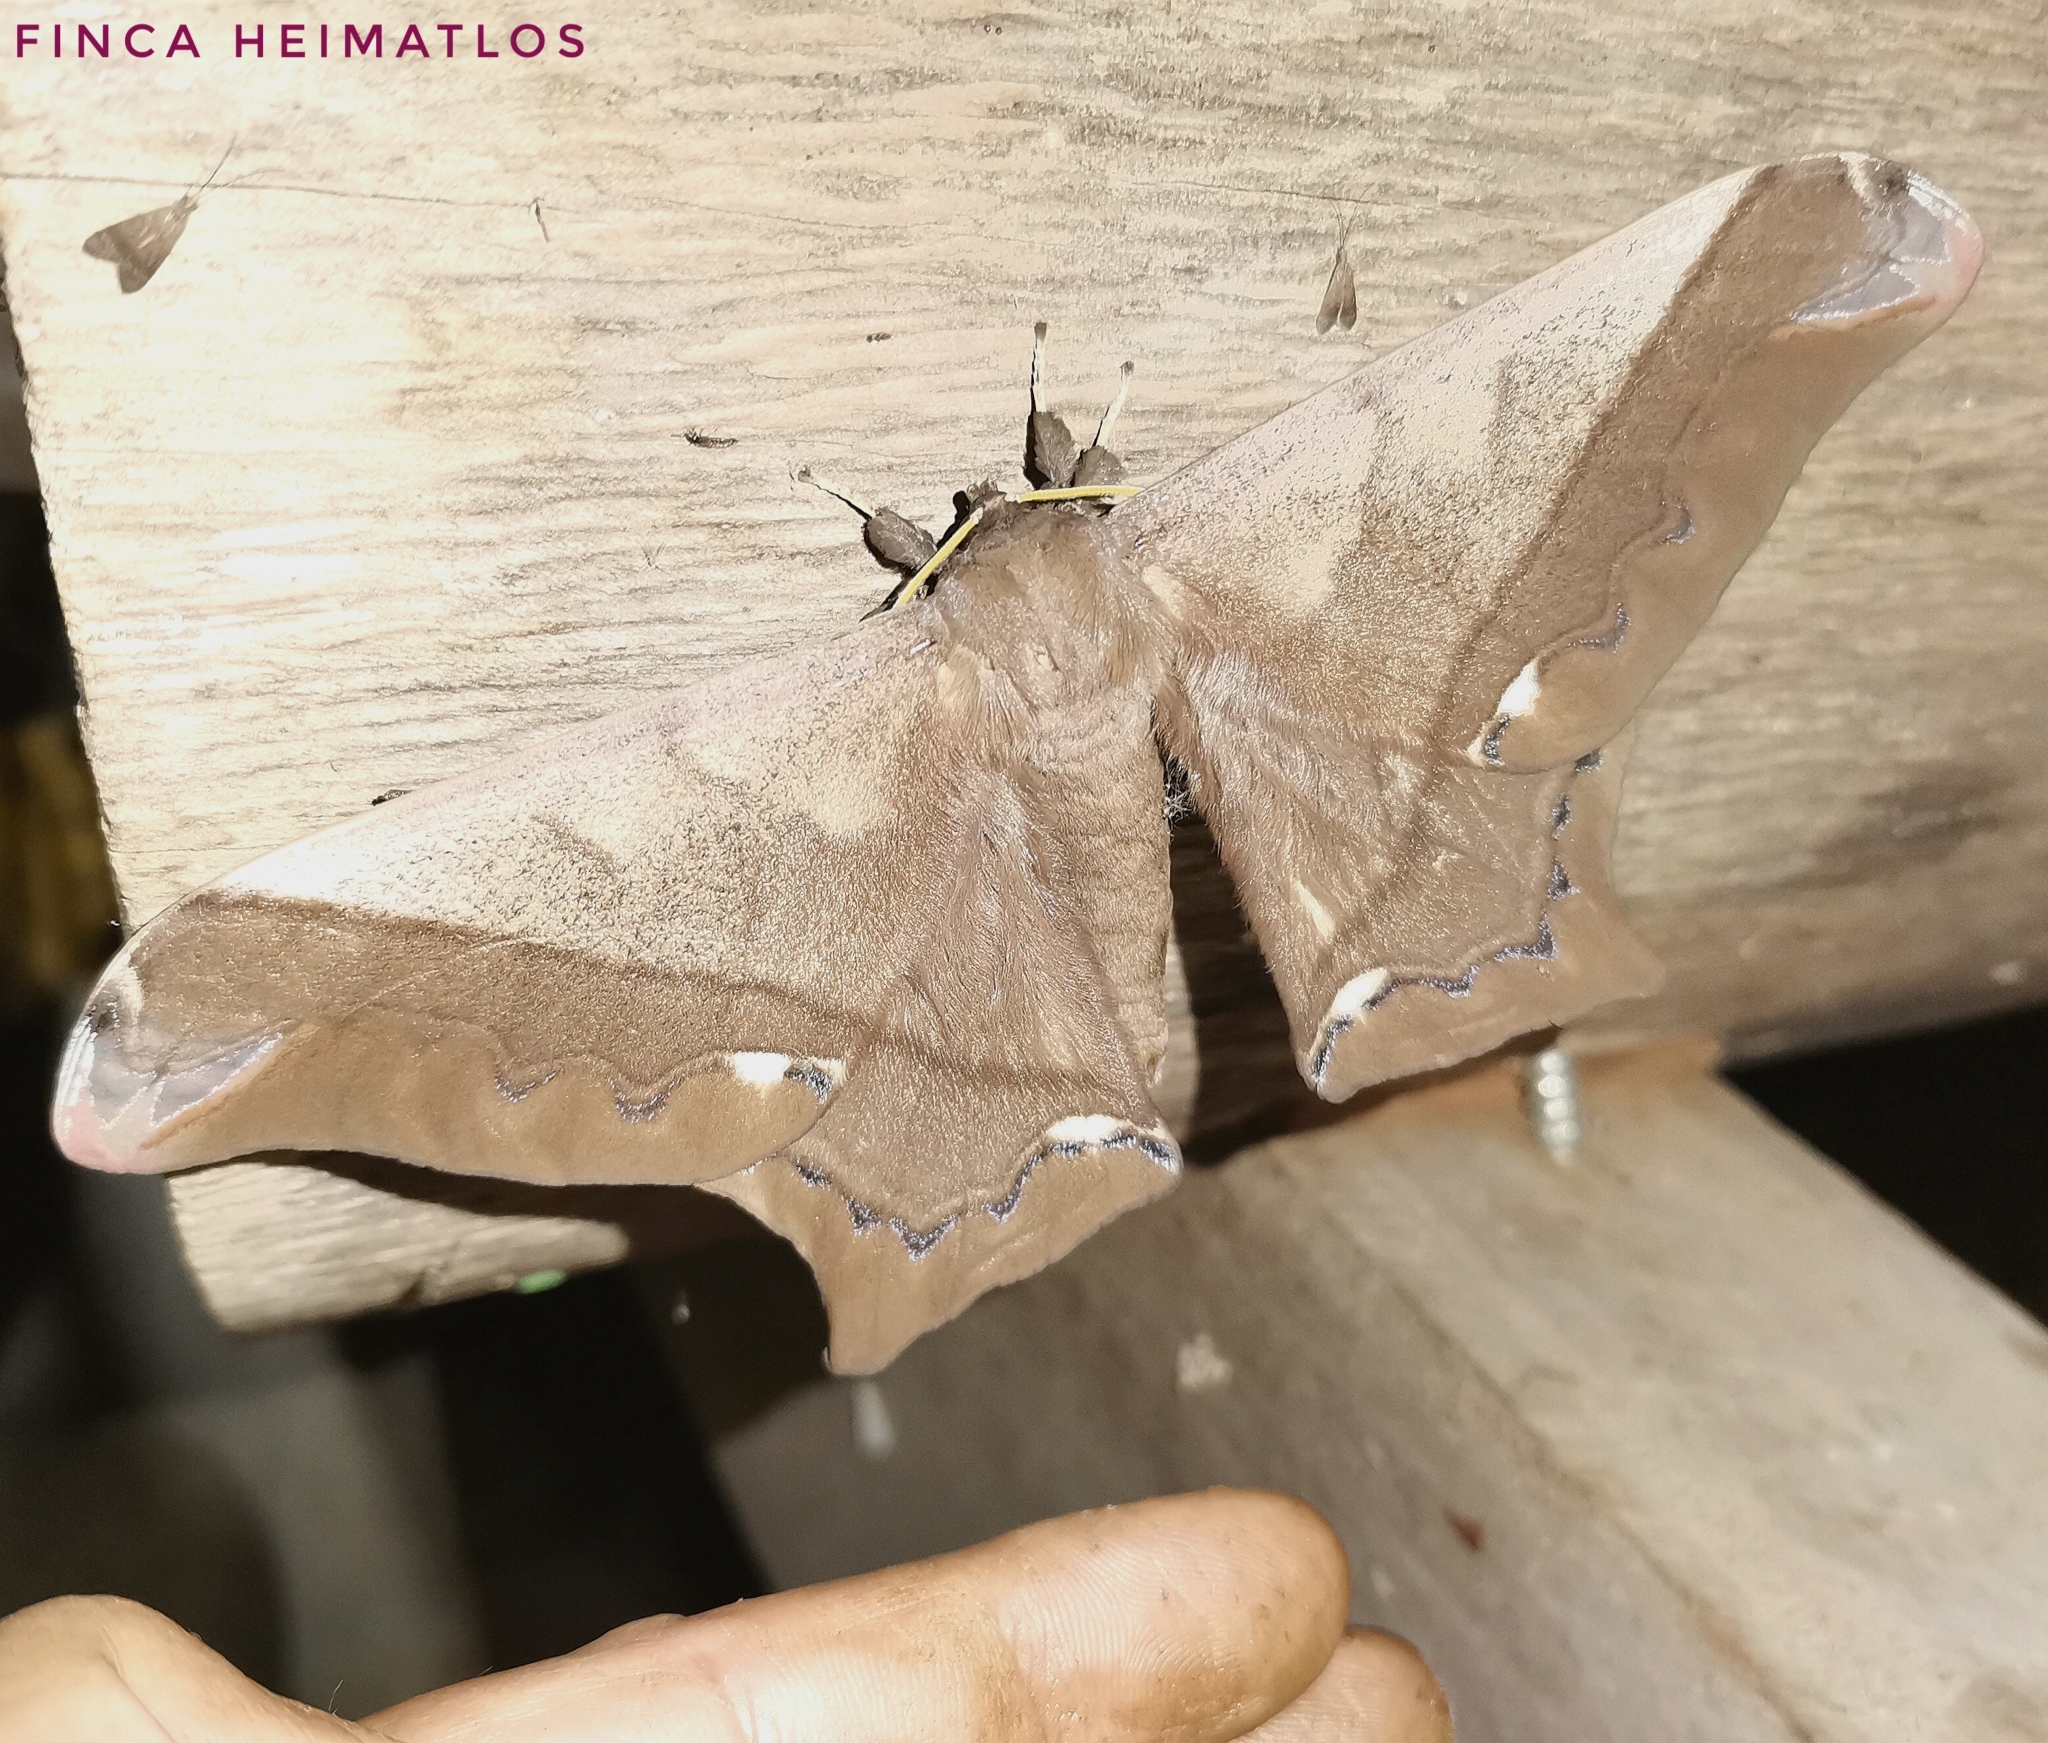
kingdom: Animalia
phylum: Arthropoda
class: Insecta
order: Lepidoptera
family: Saturniidae
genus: Arsenura
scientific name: Arsenura fuscata
